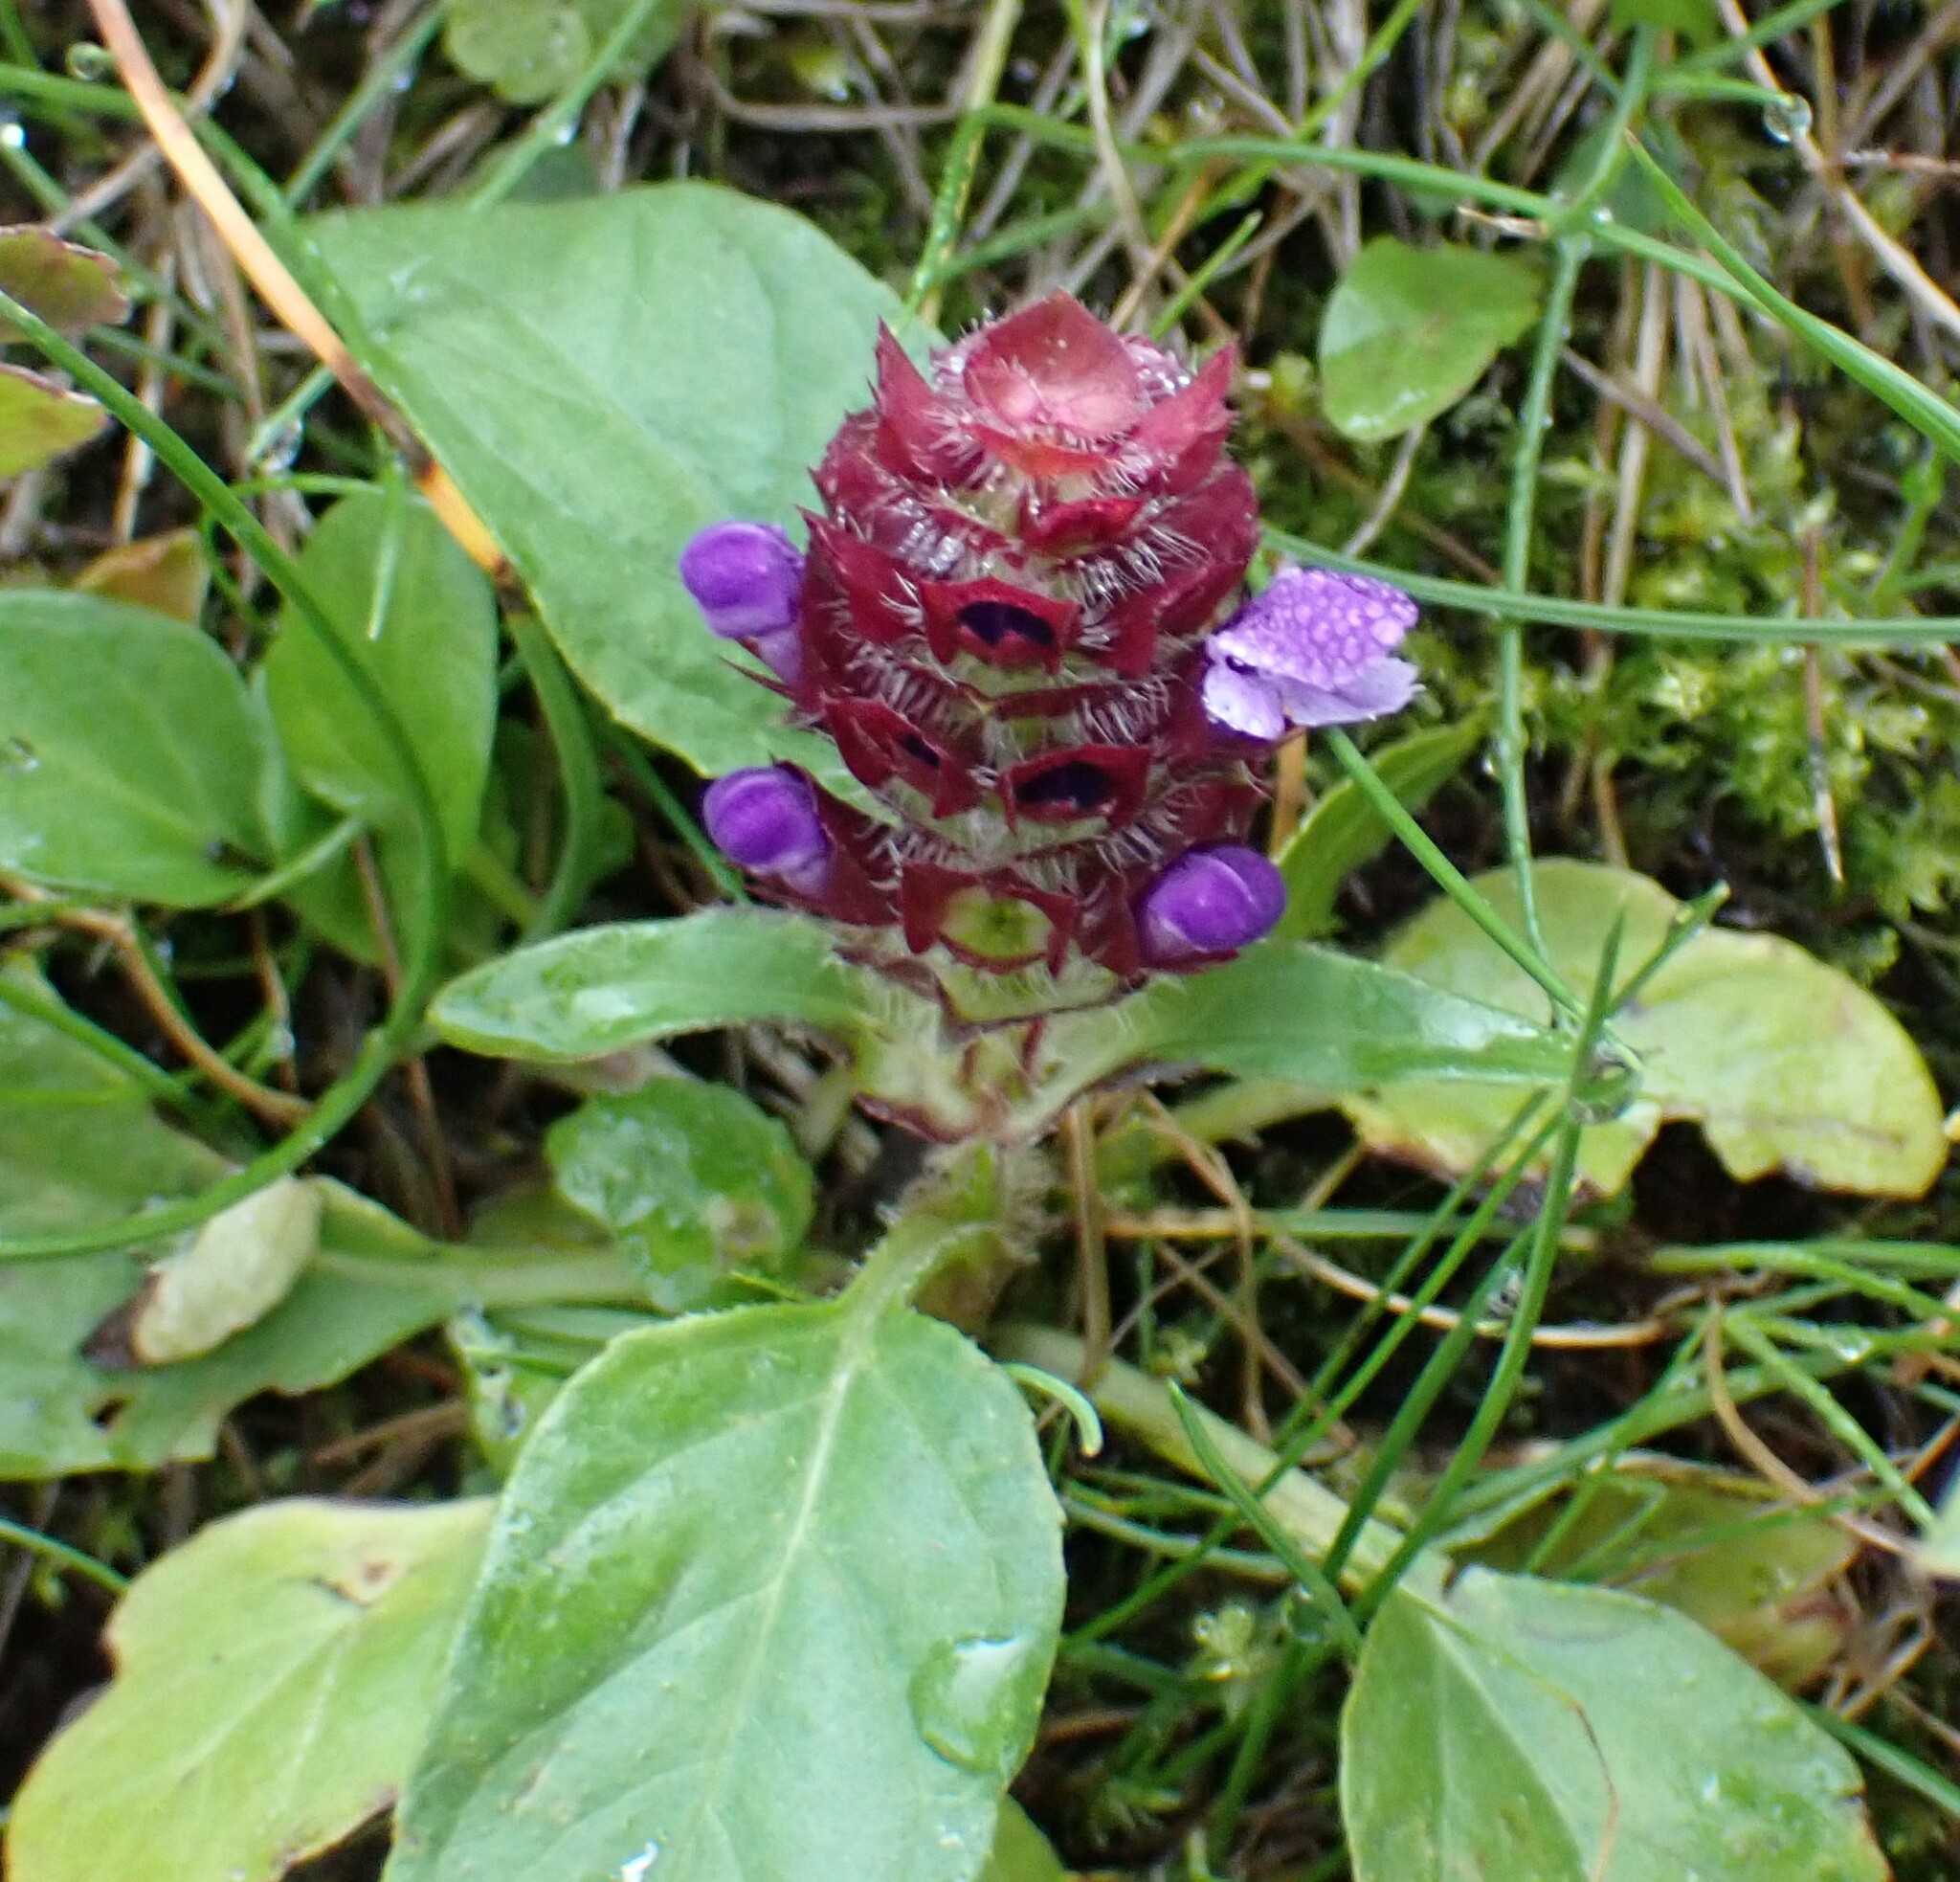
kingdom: Plantae
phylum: Tracheophyta
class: Magnoliopsida
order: Lamiales
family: Lamiaceae
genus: Prunella
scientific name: Prunella vulgaris
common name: Heal-all
